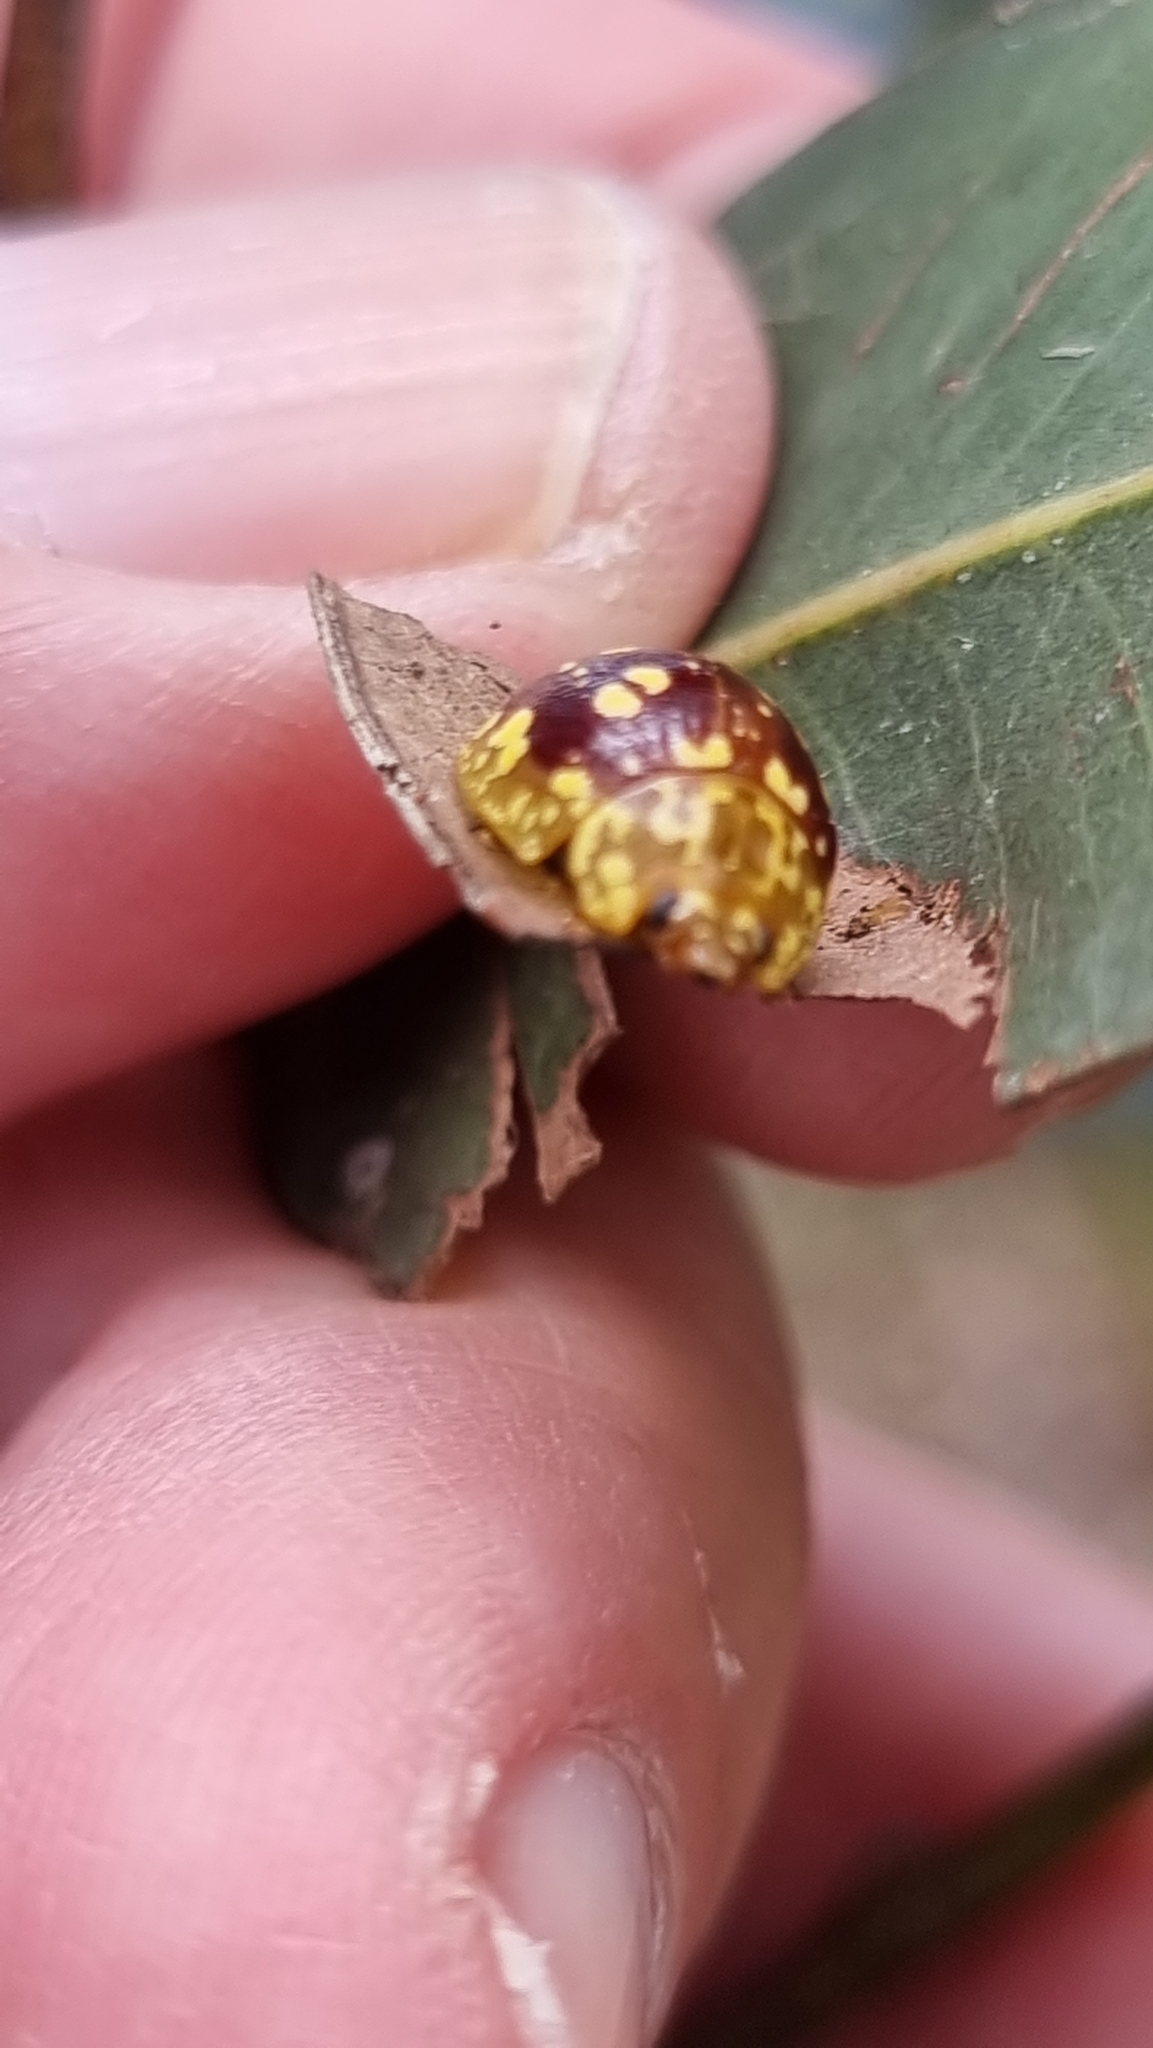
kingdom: Animalia
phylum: Arthropoda
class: Insecta
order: Coleoptera
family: Chrysomelidae
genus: Paropsis
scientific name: Paropsis maculata
